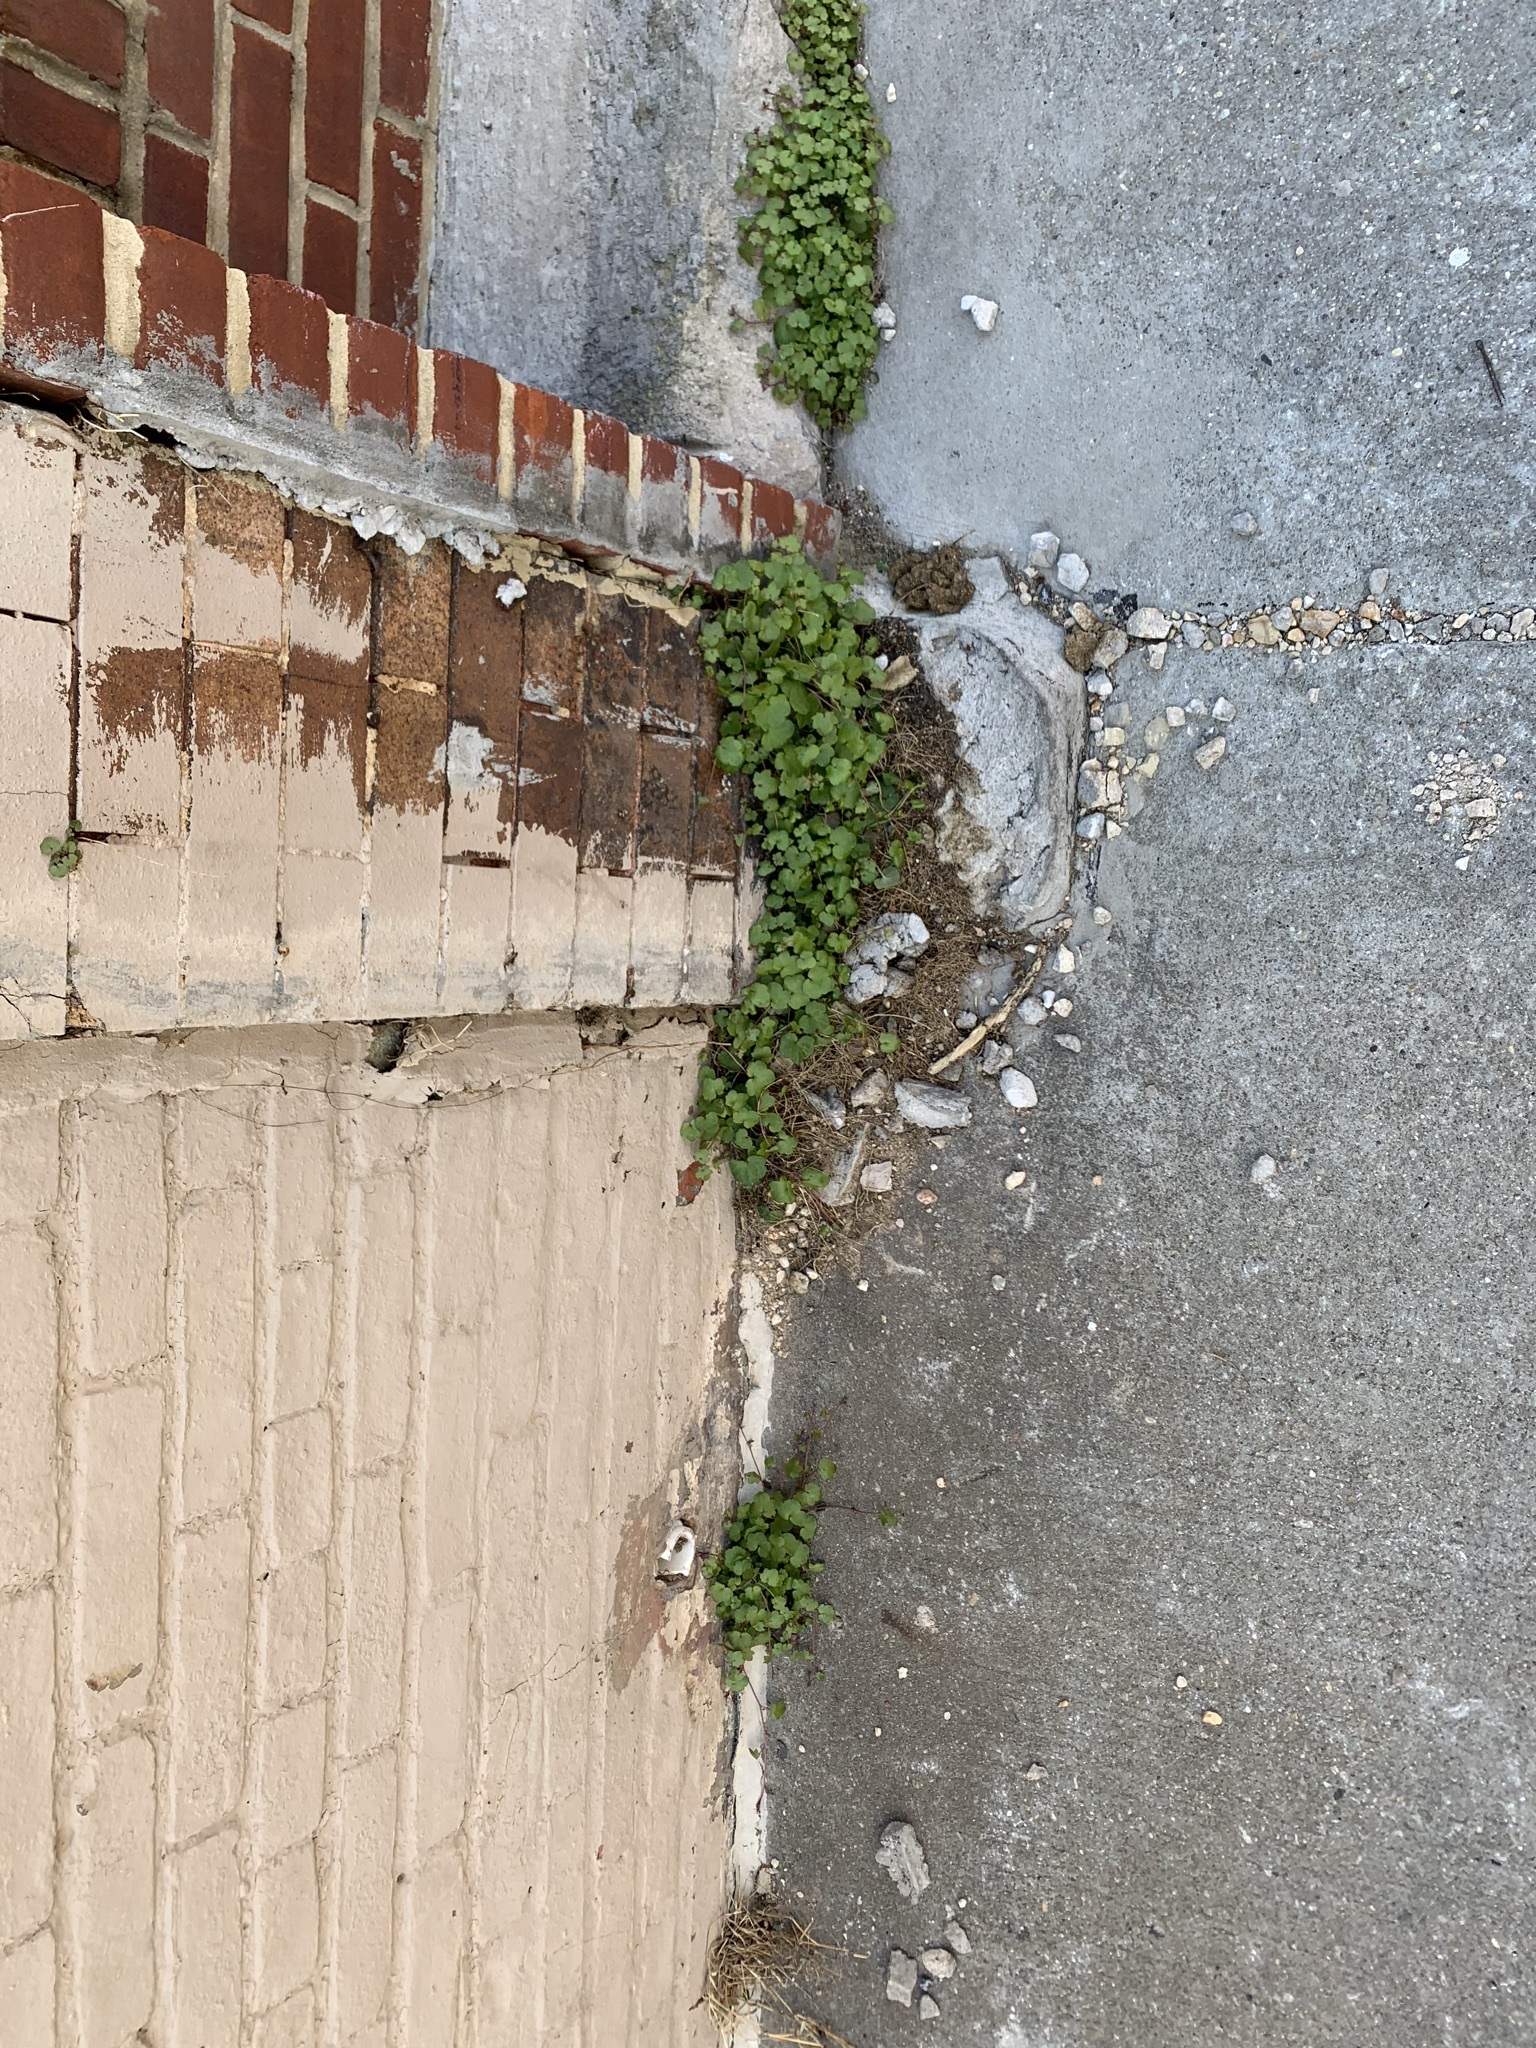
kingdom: Plantae
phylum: Tracheophyta
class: Magnoliopsida
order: Lamiales
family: Plantaginaceae
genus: Cymbalaria
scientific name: Cymbalaria muralis
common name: Ivy-leaved toadflax
